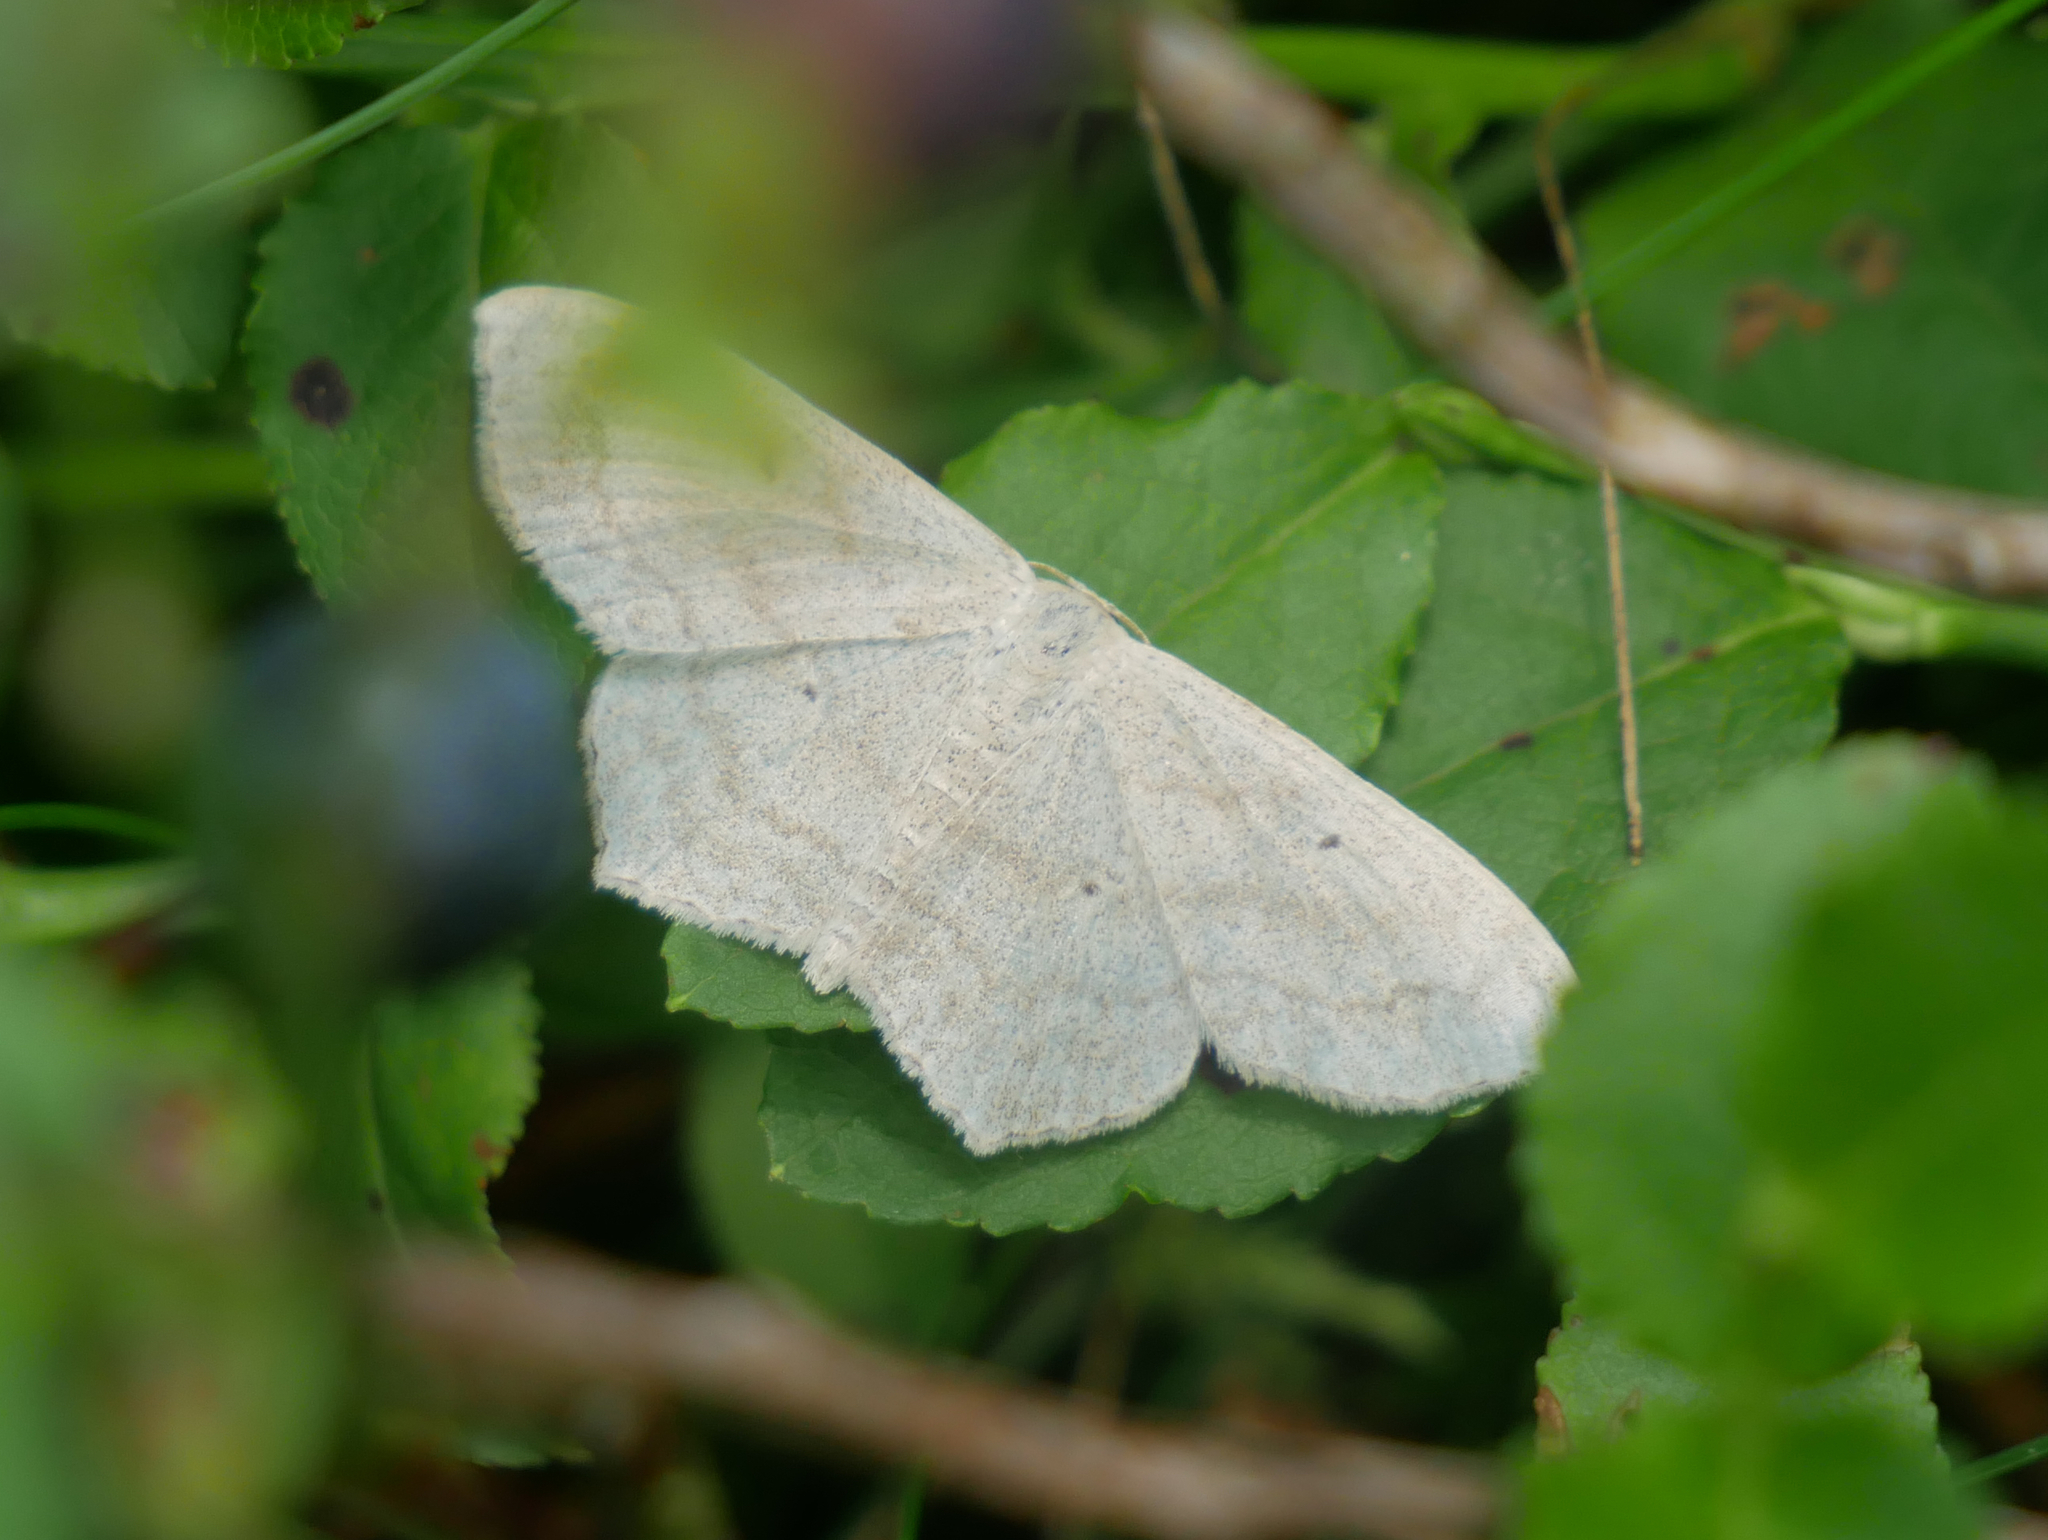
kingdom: Animalia
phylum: Arthropoda
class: Insecta
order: Lepidoptera
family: Geometridae
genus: Scopula
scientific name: Scopula nigropunctata
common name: Sub-angled wave
